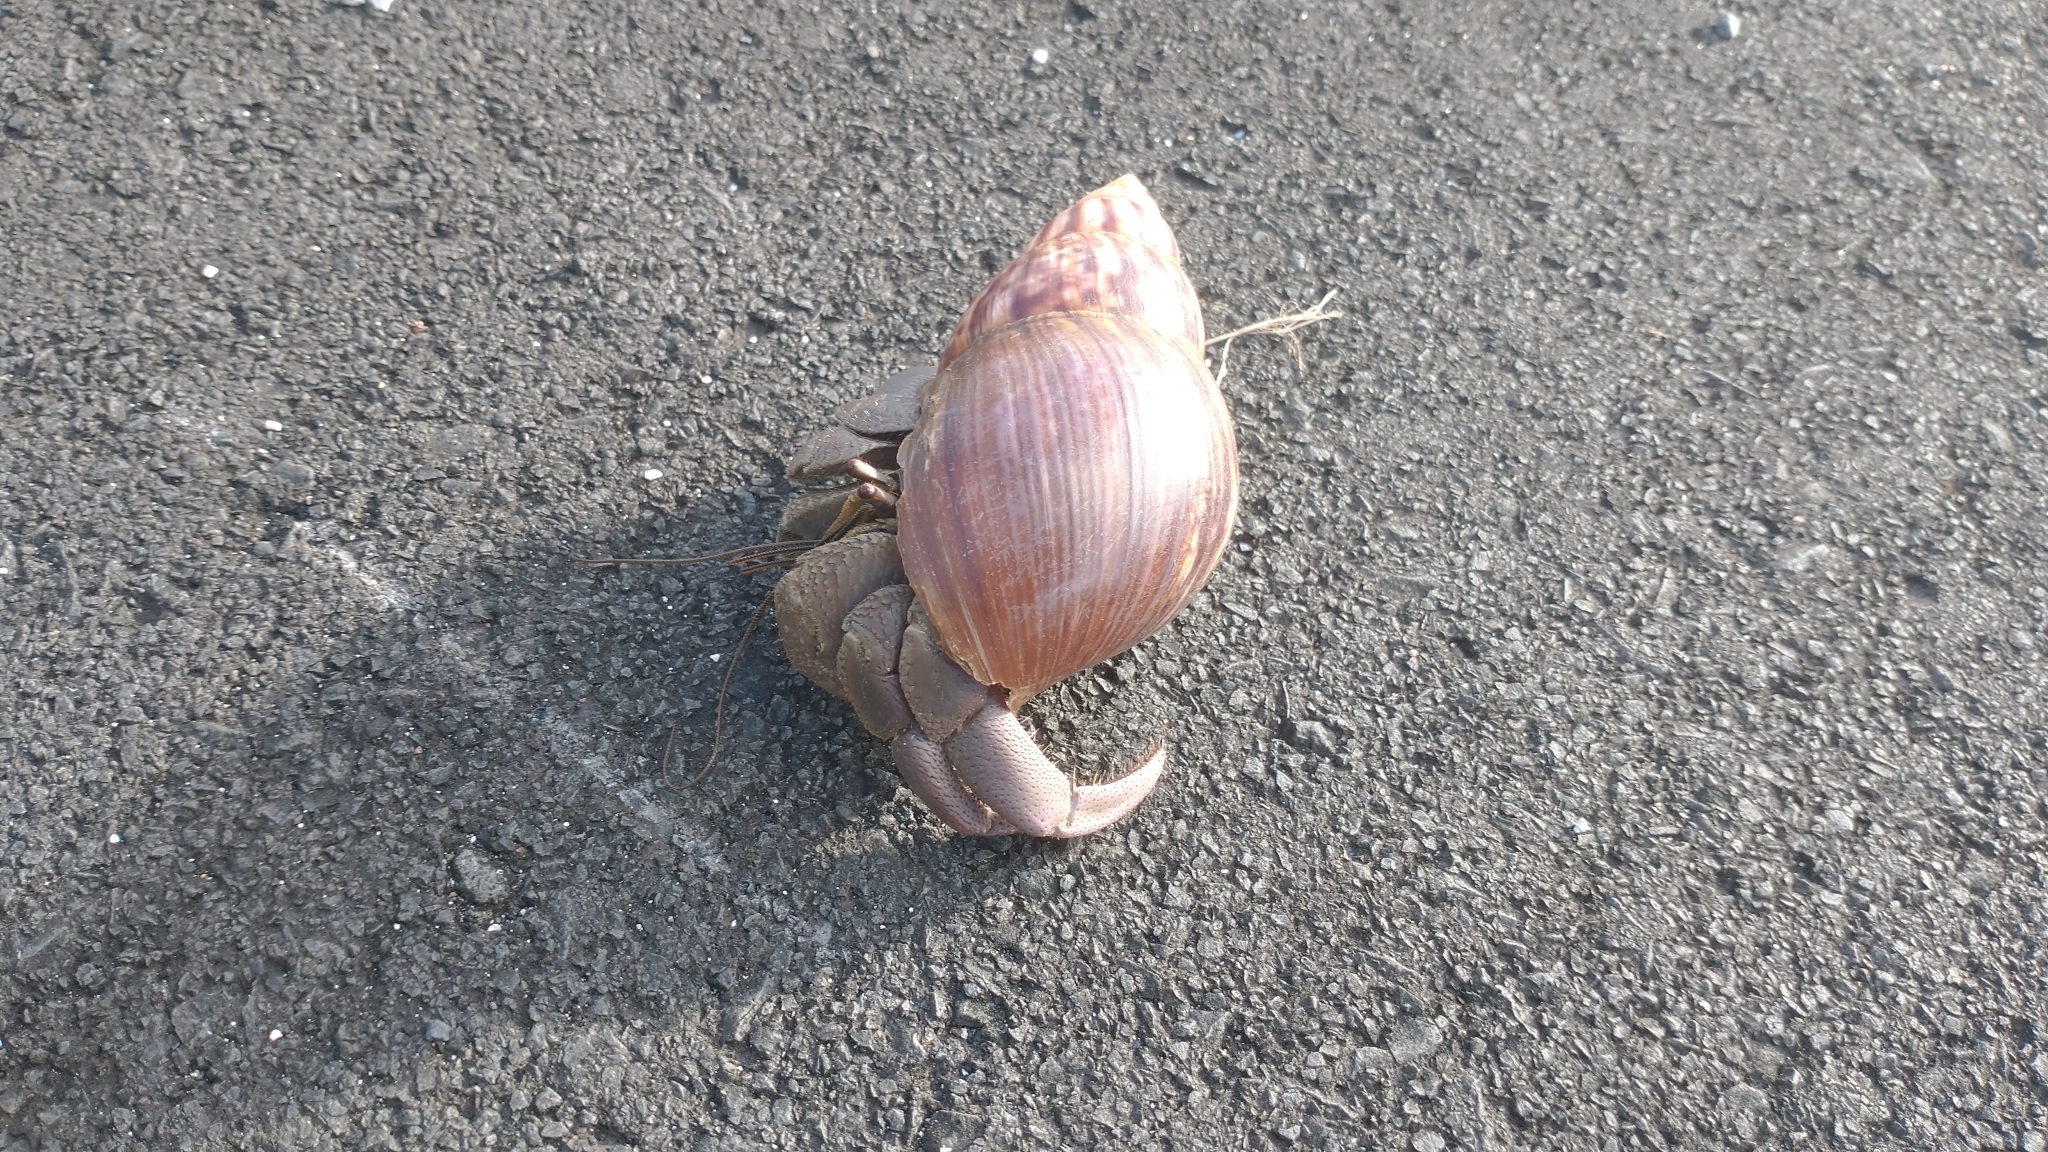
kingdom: Animalia
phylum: Arthropoda
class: Malacostraca
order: Decapoda
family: Coenobitidae
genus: Coenobita
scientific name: Coenobita brevimanus
